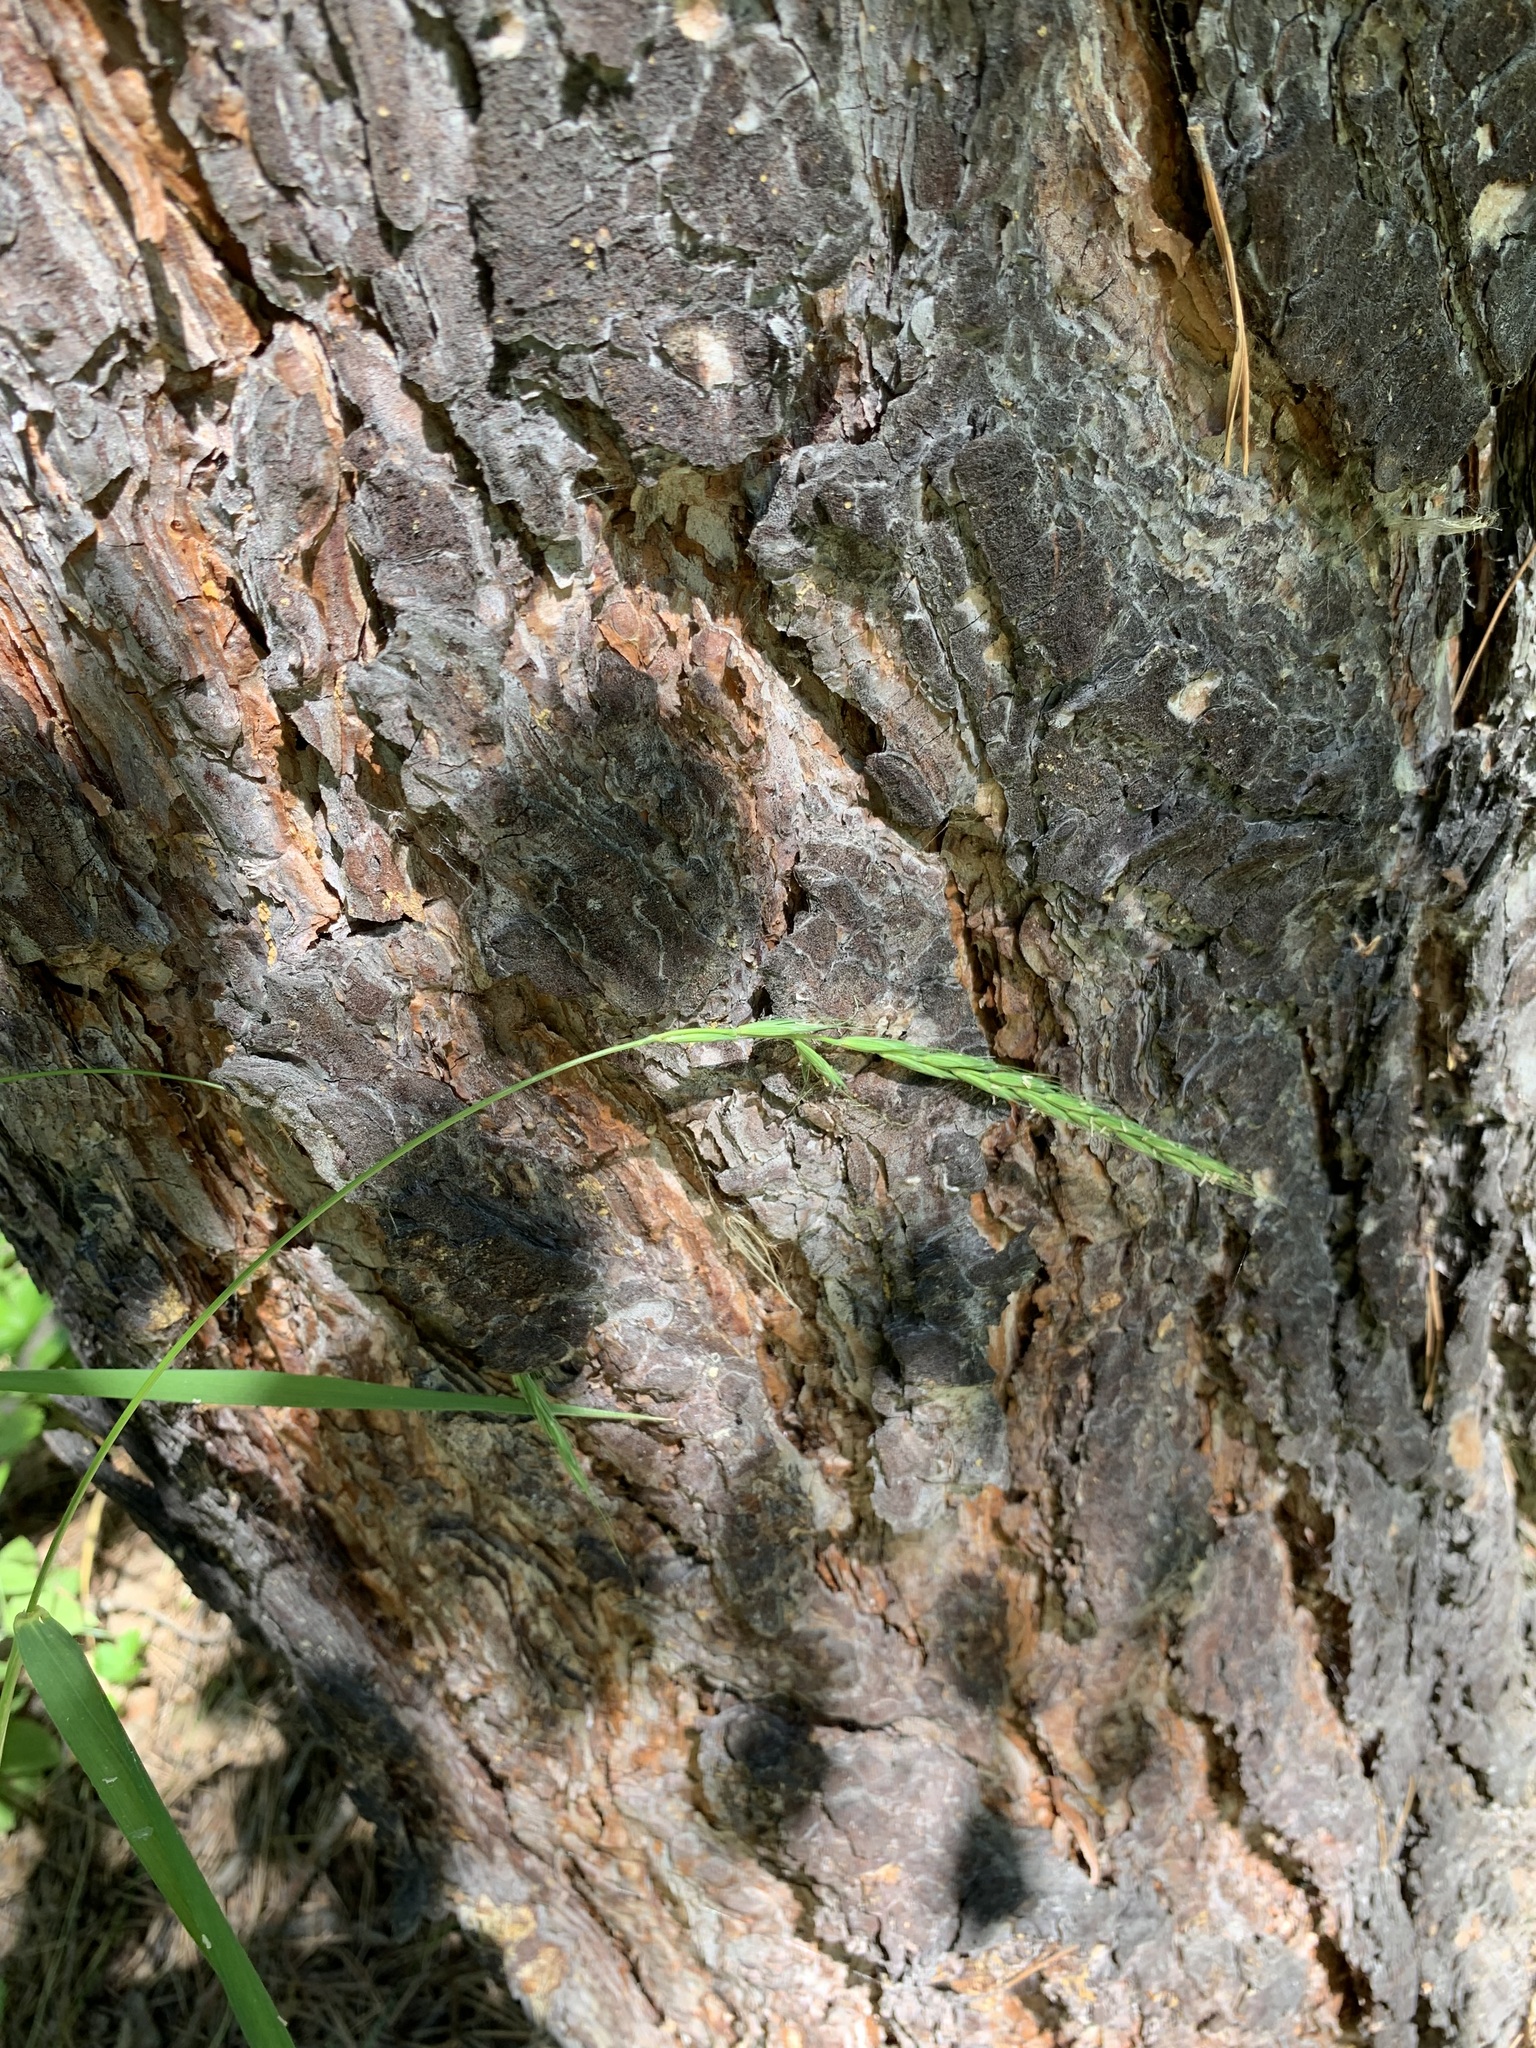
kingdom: Plantae
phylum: Tracheophyta
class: Liliopsida
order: Poales
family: Poaceae
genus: Elymus
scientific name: Elymus caninus
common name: Bearded couch
